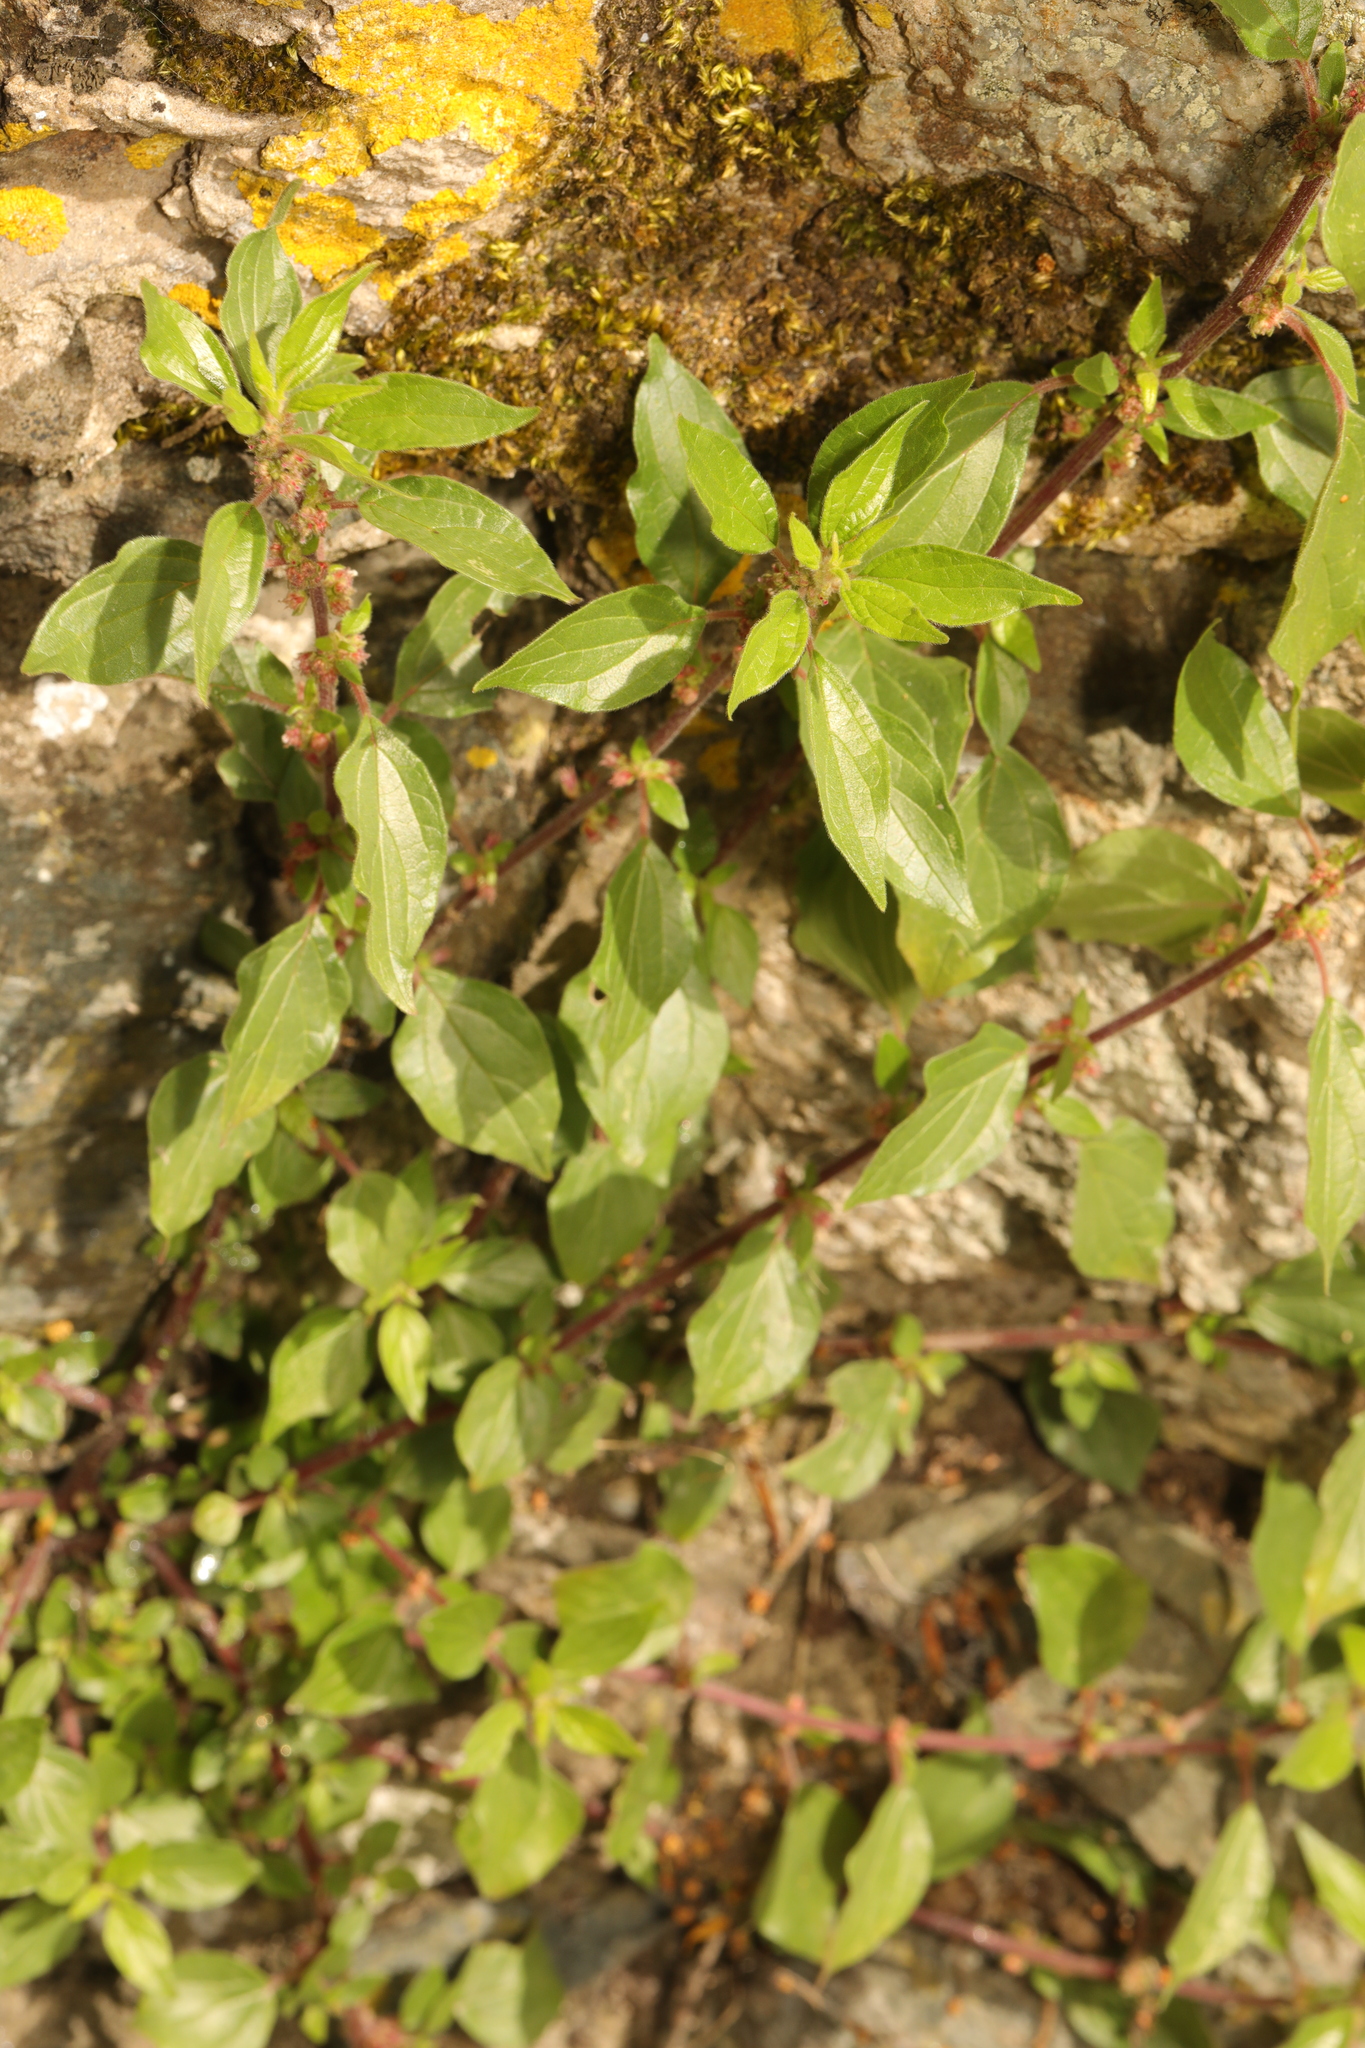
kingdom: Plantae
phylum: Tracheophyta
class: Magnoliopsida
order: Rosales
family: Urticaceae
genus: Parietaria
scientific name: Parietaria judaica
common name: Pellitory-of-the-wall
